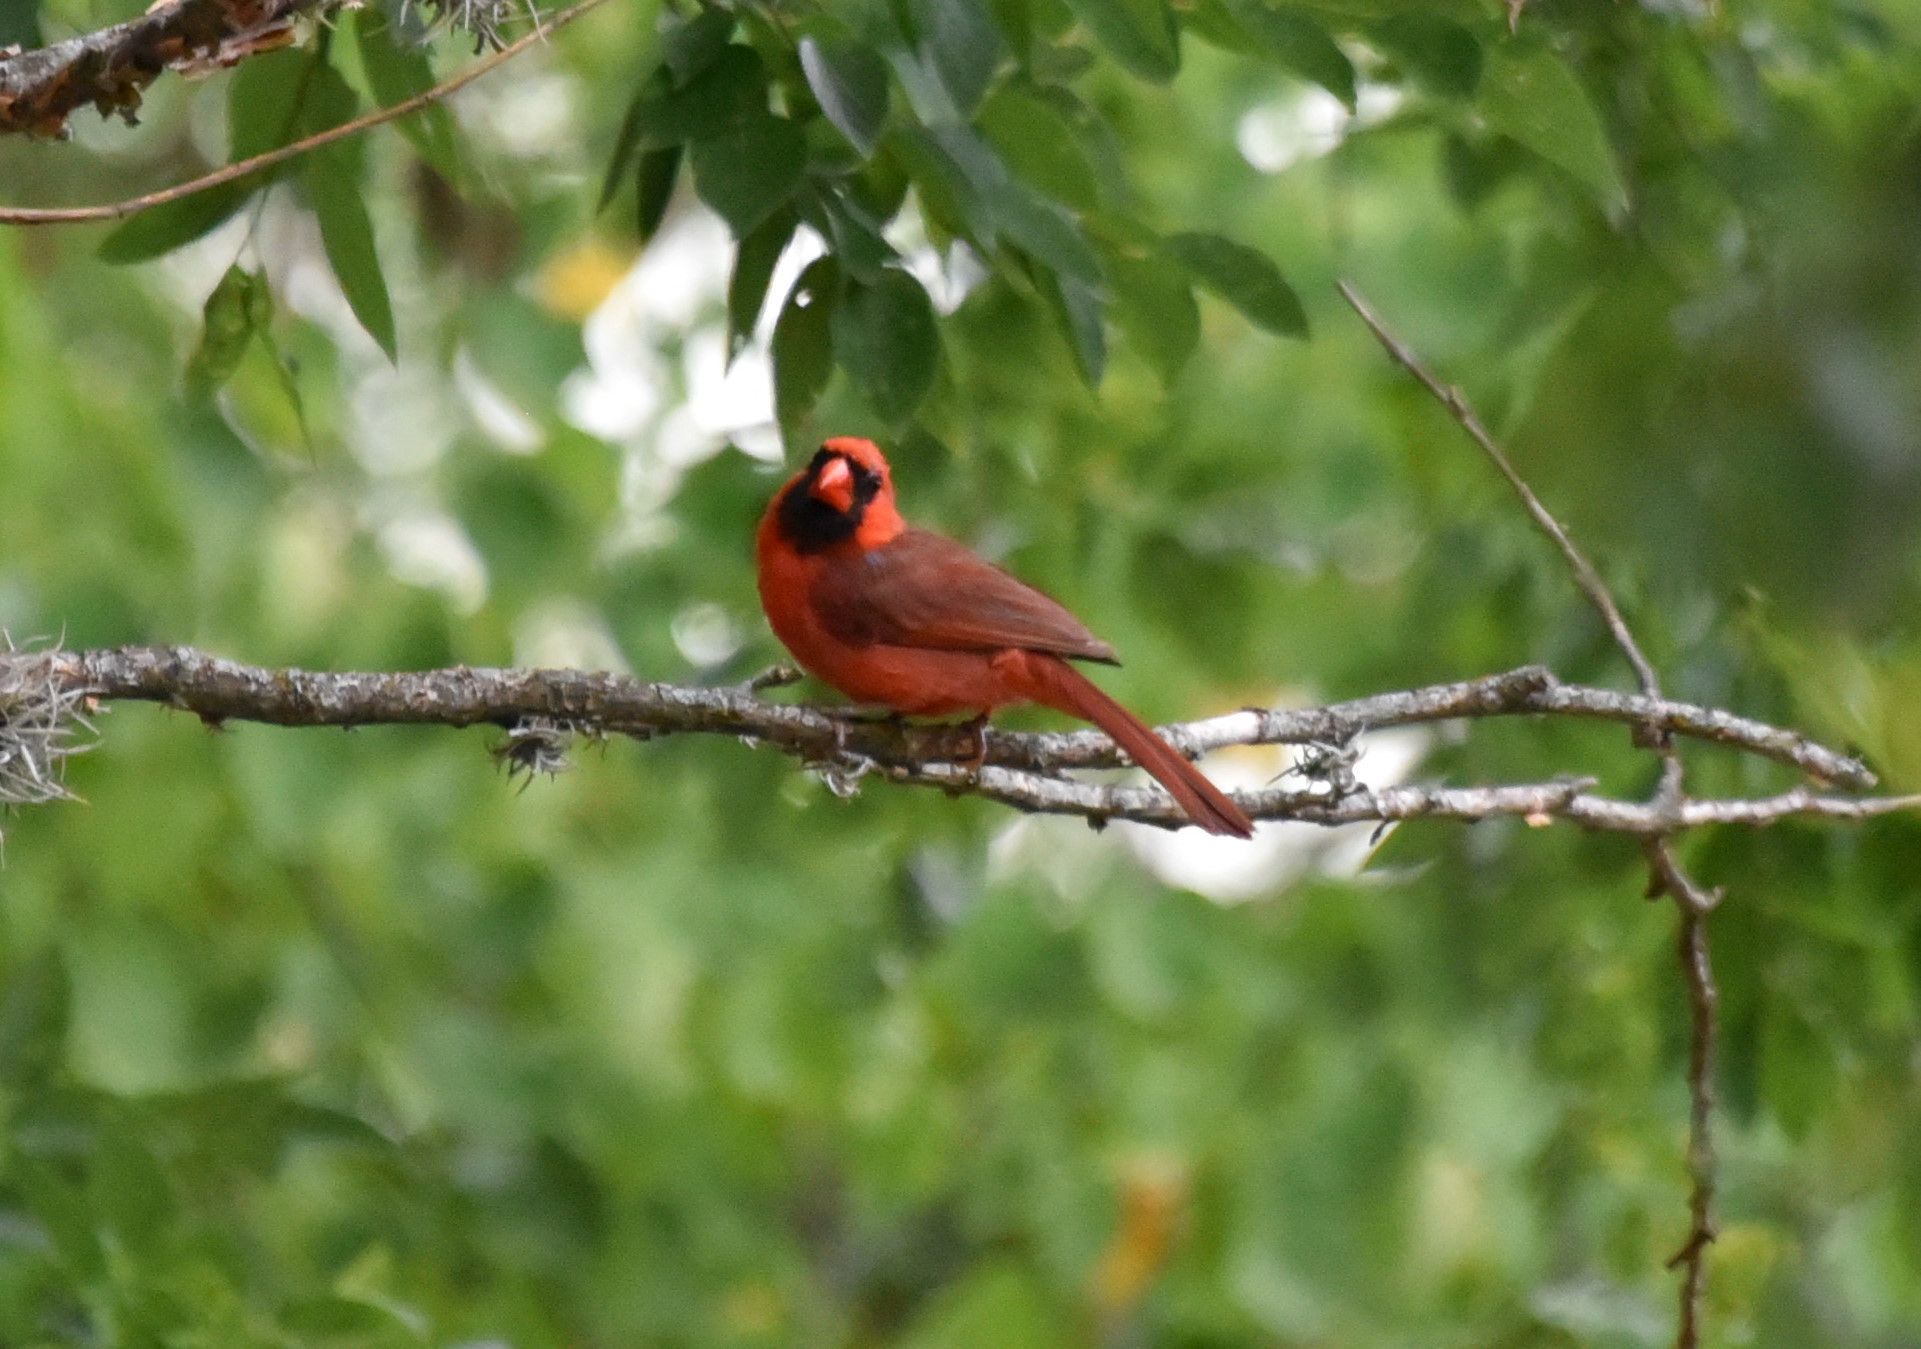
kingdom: Animalia
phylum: Chordata
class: Aves
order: Passeriformes
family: Cardinalidae
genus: Cardinalis
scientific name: Cardinalis cardinalis
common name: Northern cardinal
